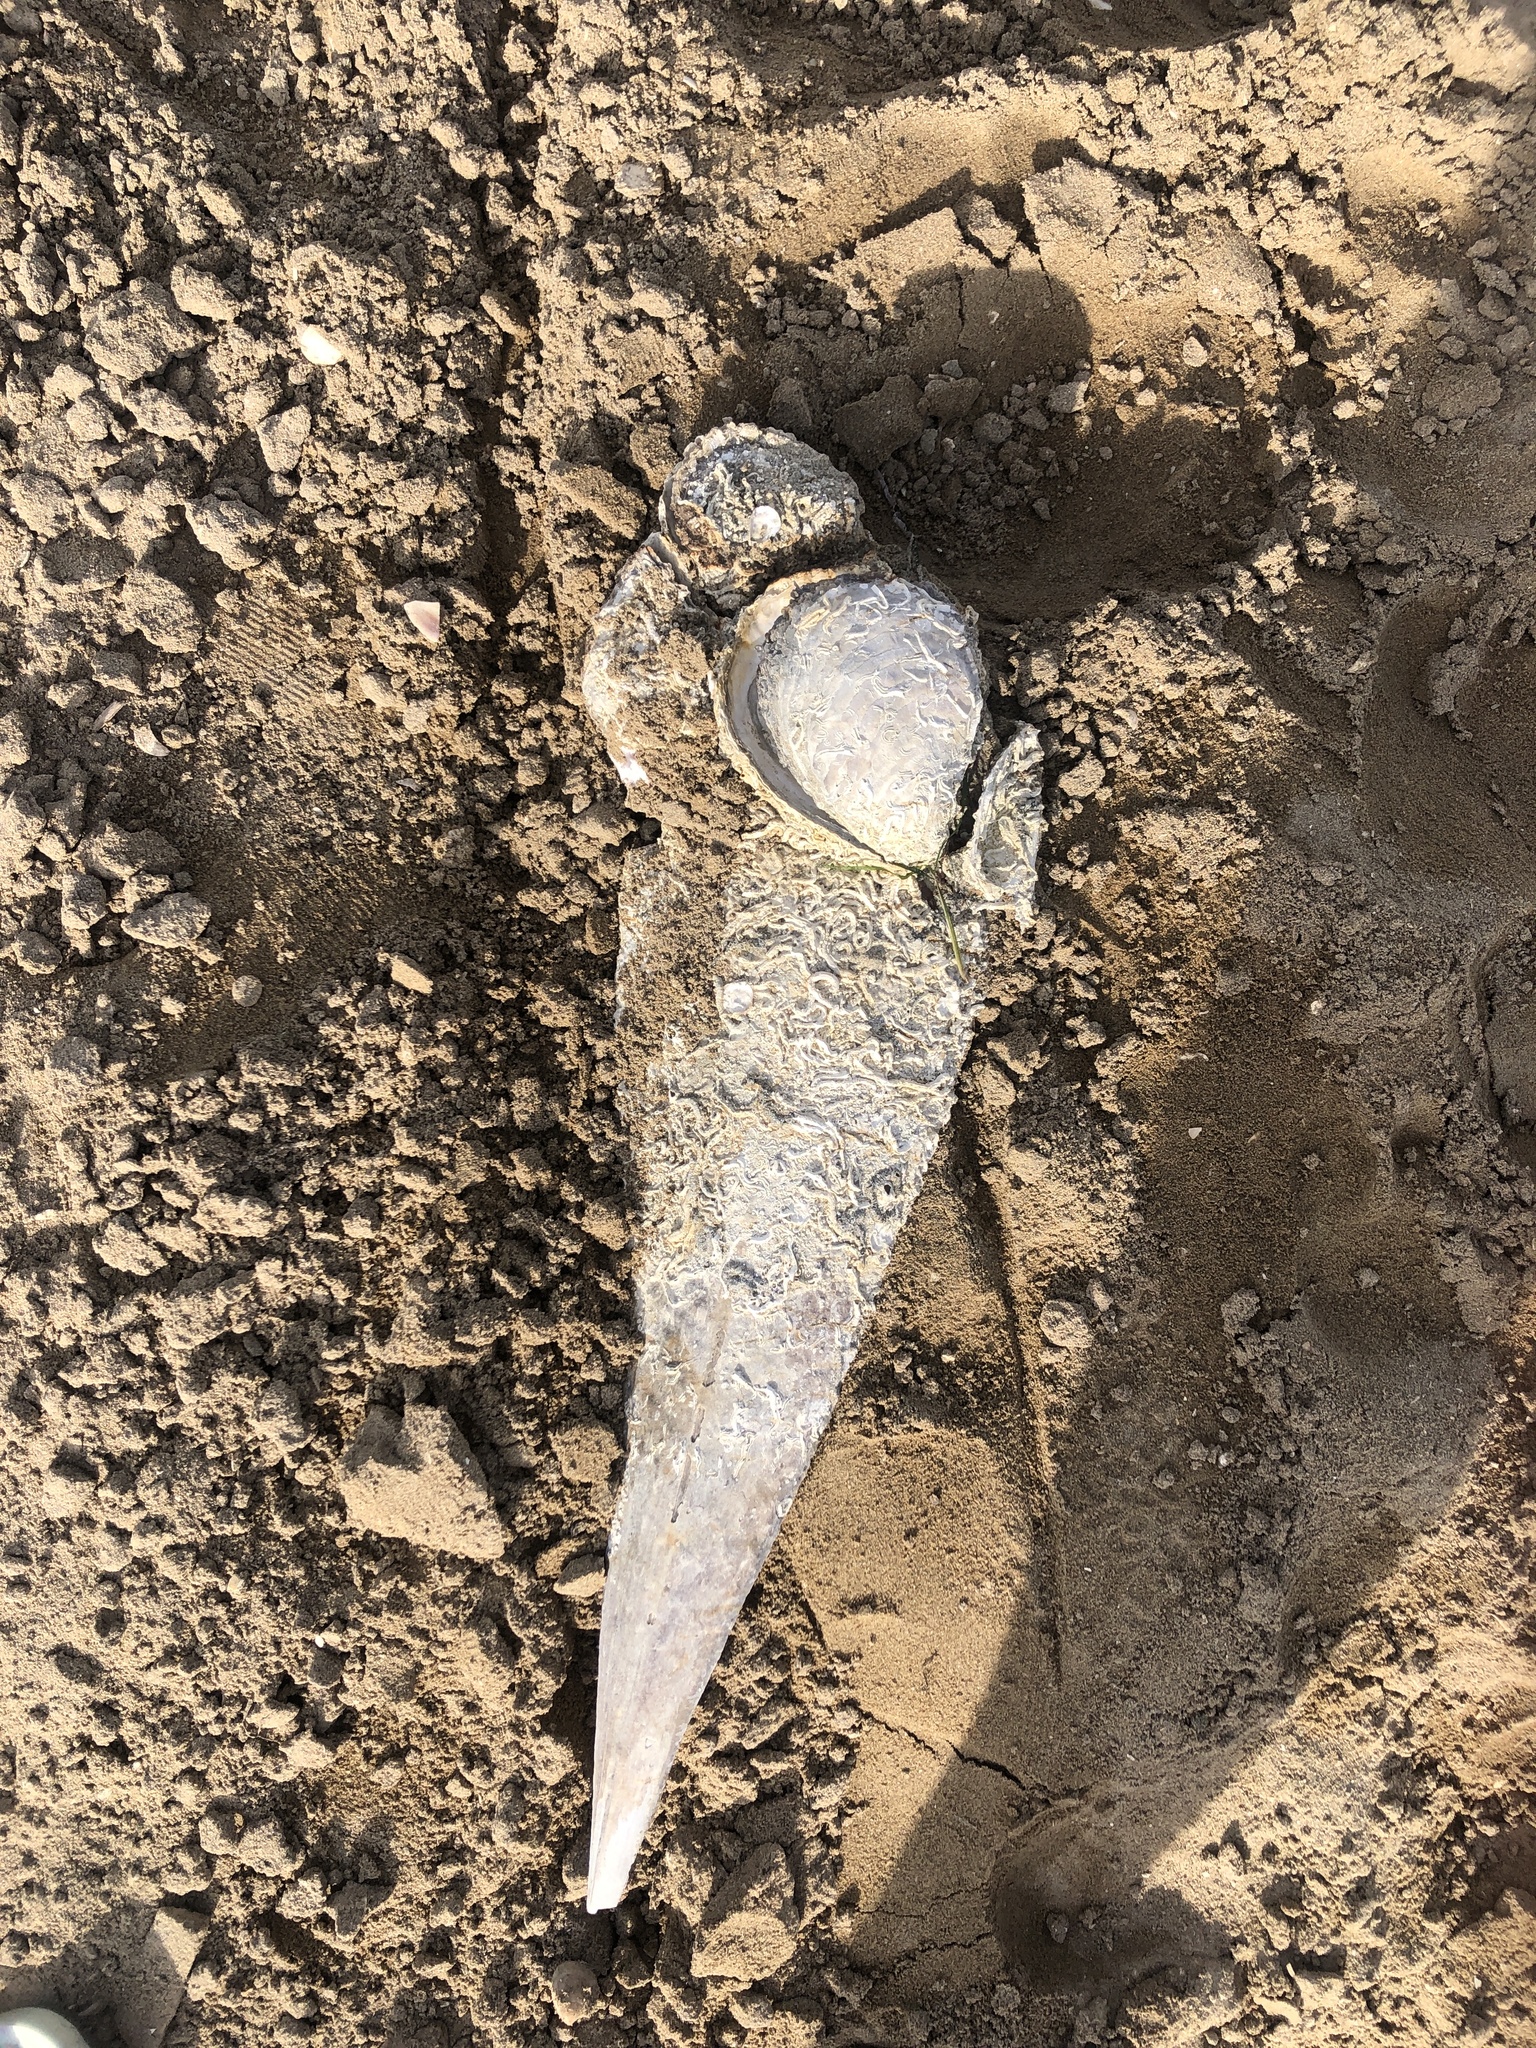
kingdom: Animalia
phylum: Mollusca
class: Bivalvia
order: Ostreida
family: Pinnidae
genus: Pinna
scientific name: Pinna nobilis
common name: Fan mussel
